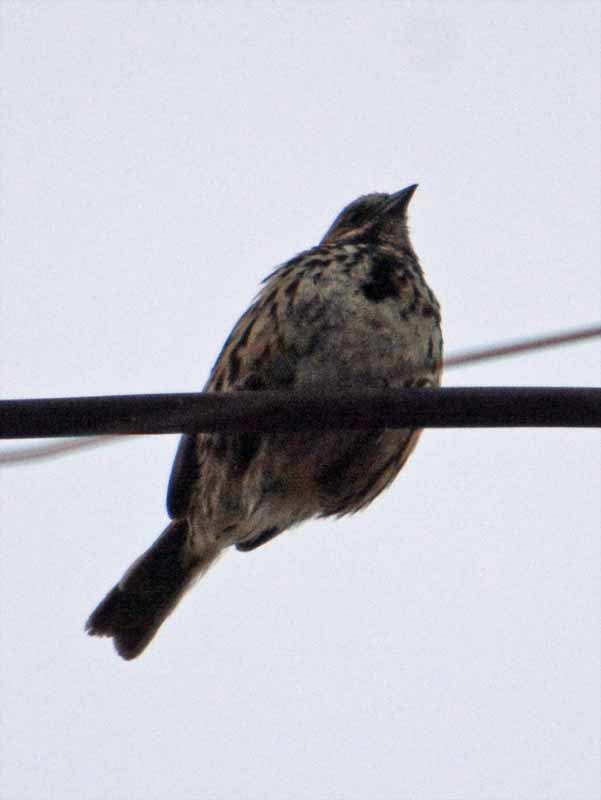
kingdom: Animalia
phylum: Chordata
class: Aves
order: Passeriformes
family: Passerellidae
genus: Melospiza
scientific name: Melospiza melodia
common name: Song sparrow
